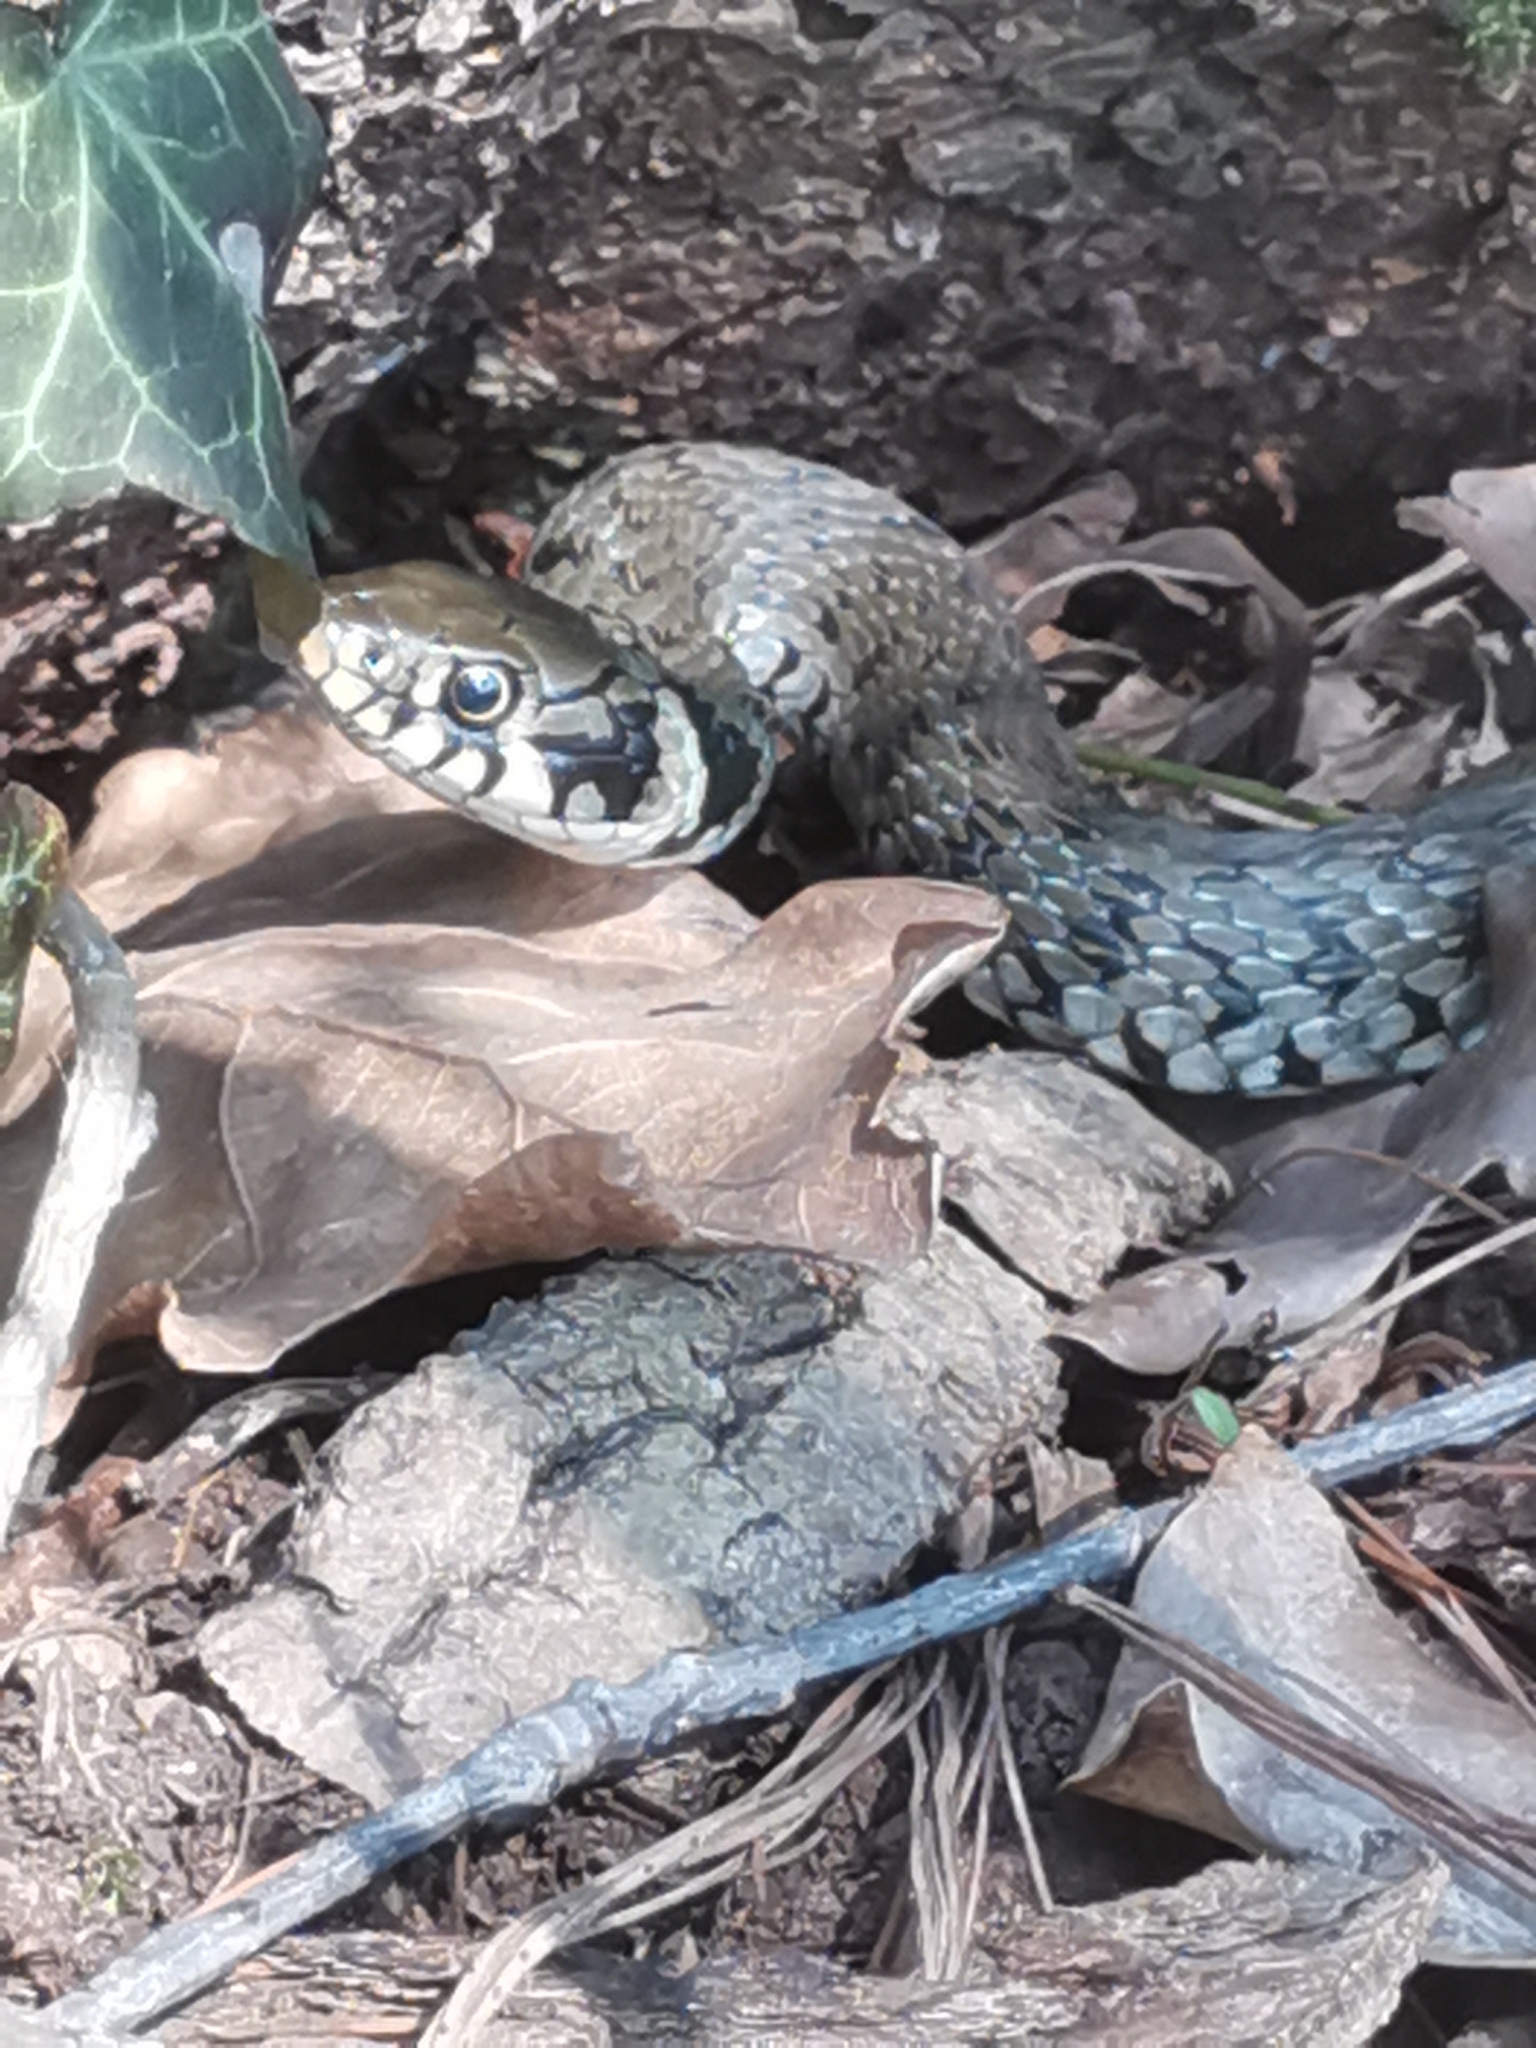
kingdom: Animalia
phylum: Chordata
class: Squamata
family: Colubridae
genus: Natrix
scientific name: Natrix natrix
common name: Grass snake
